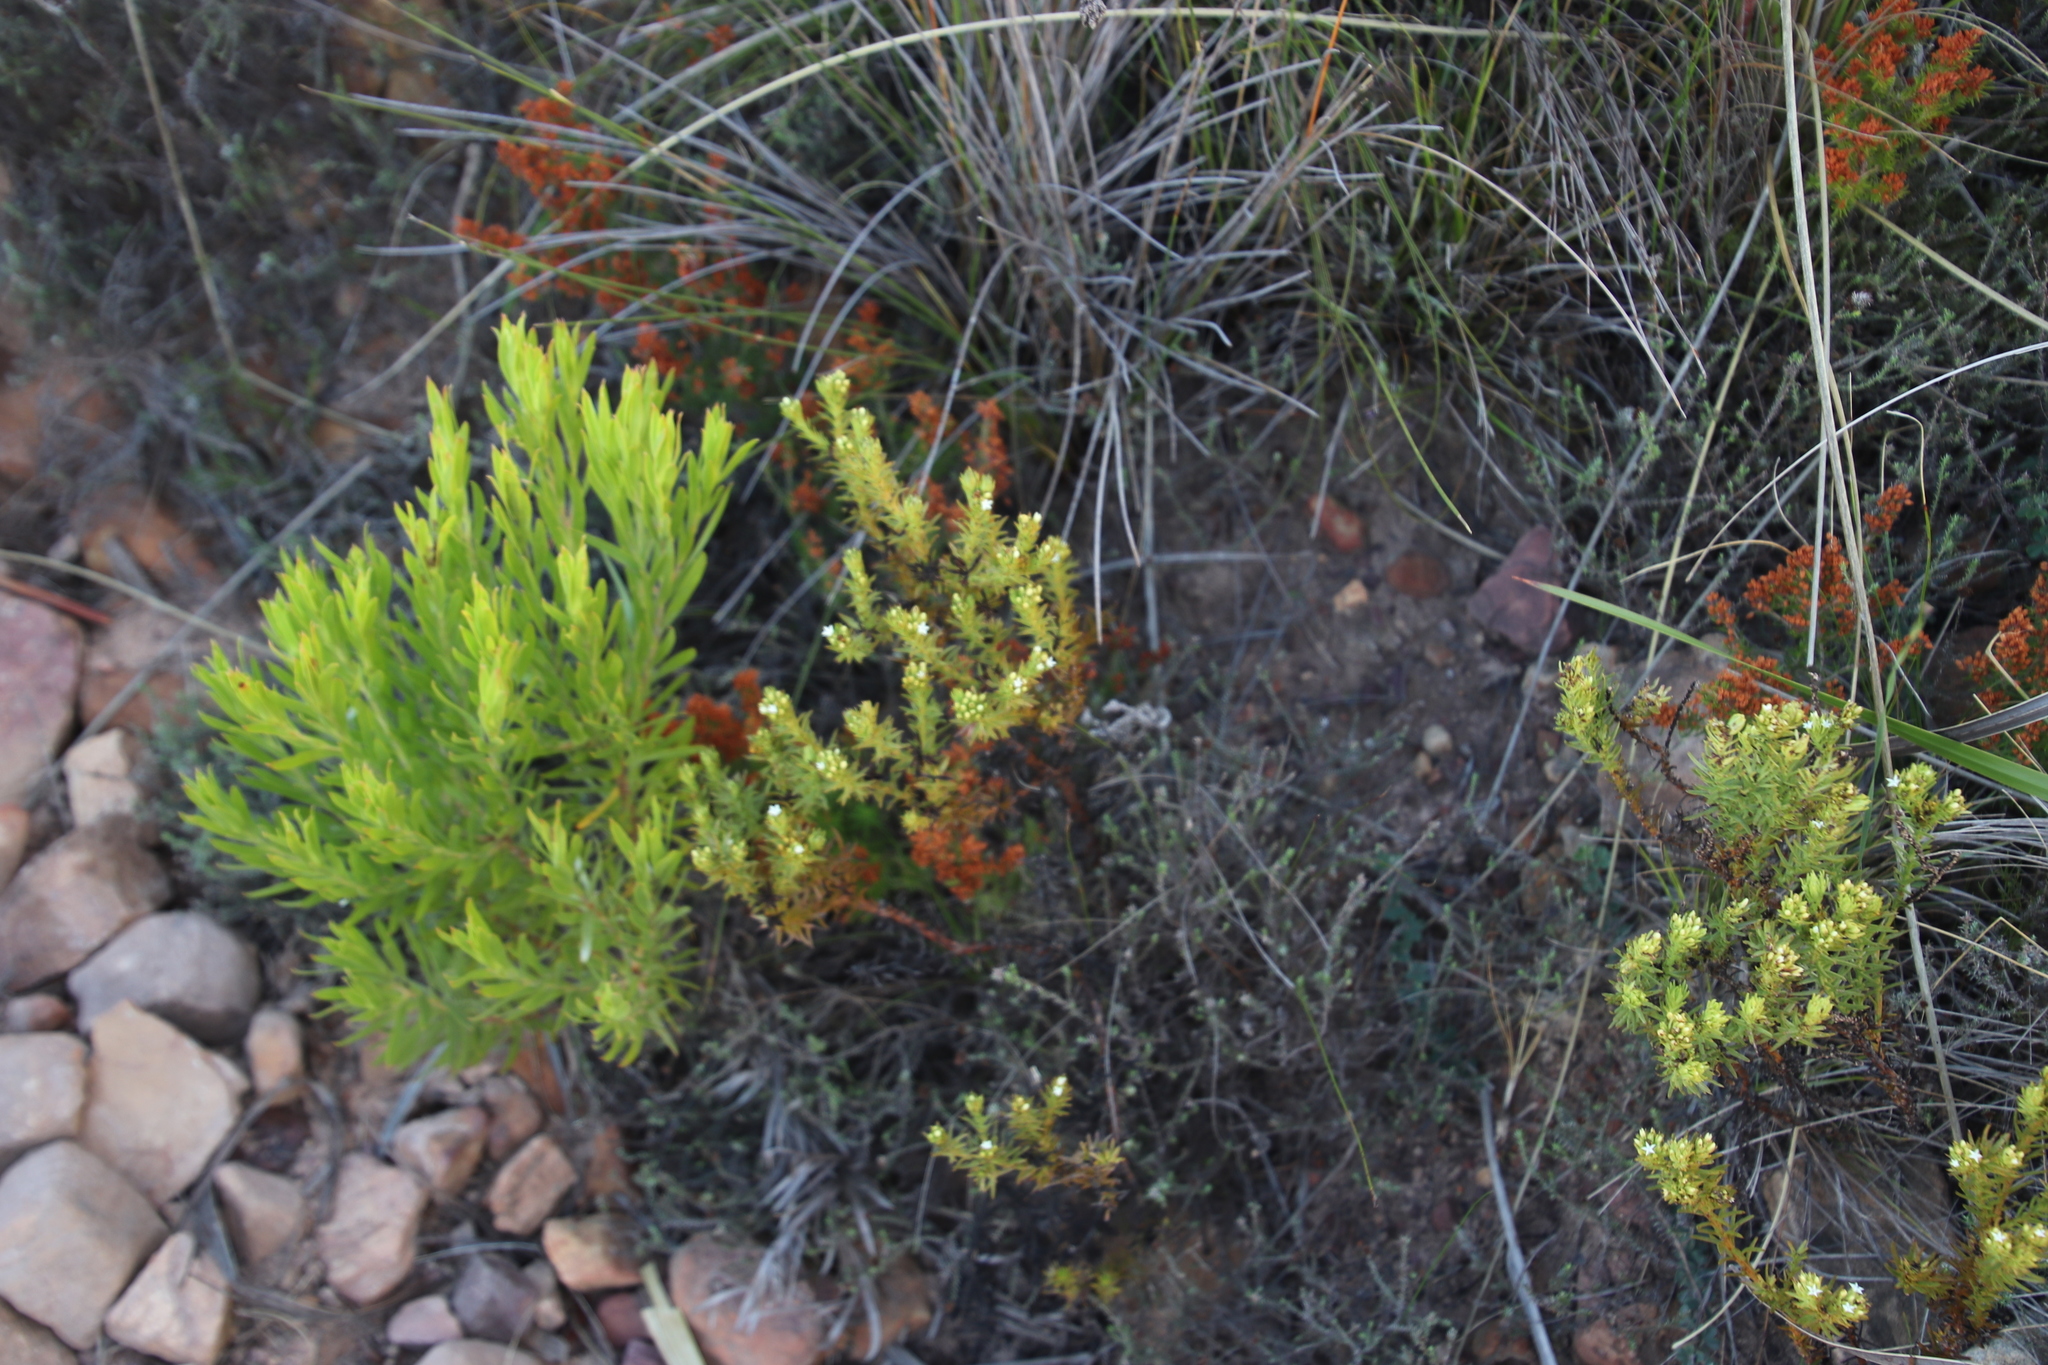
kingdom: Plantae
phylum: Tracheophyta
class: Magnoliopsida
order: Santalales
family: Thesiaceae
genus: Thesium
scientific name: Thesium viridifolium
